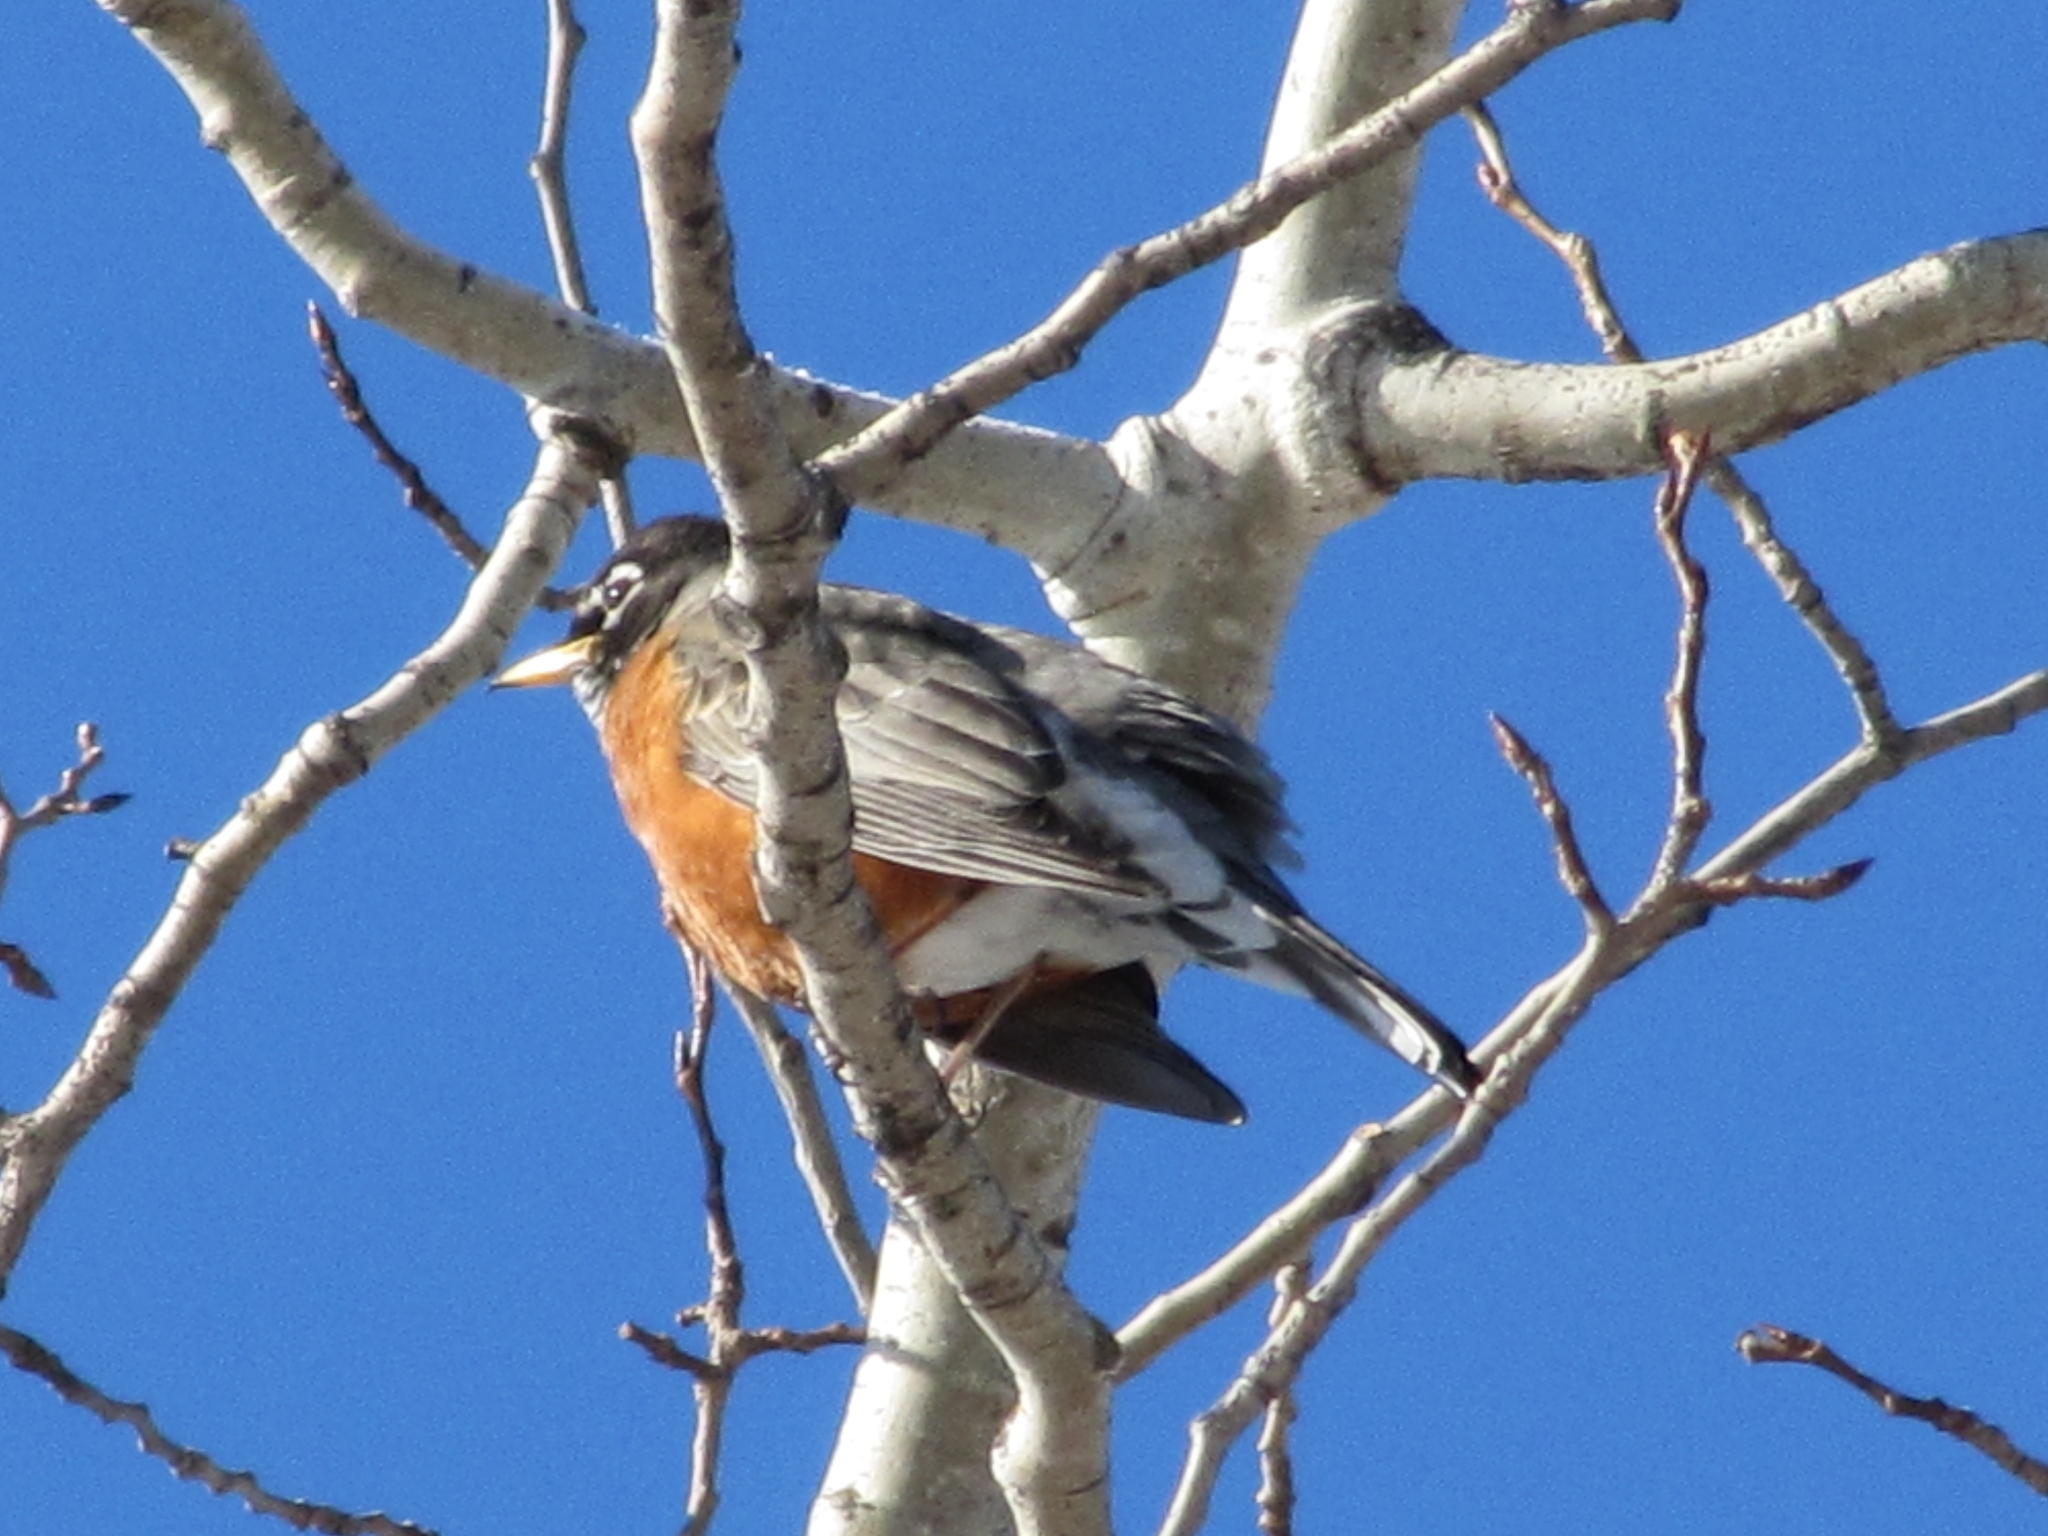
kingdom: Animalia
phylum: Chordata
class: Aves
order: Passeriformes
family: Turdidae
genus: Turdus
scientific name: Turdus migratorius
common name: American robin
